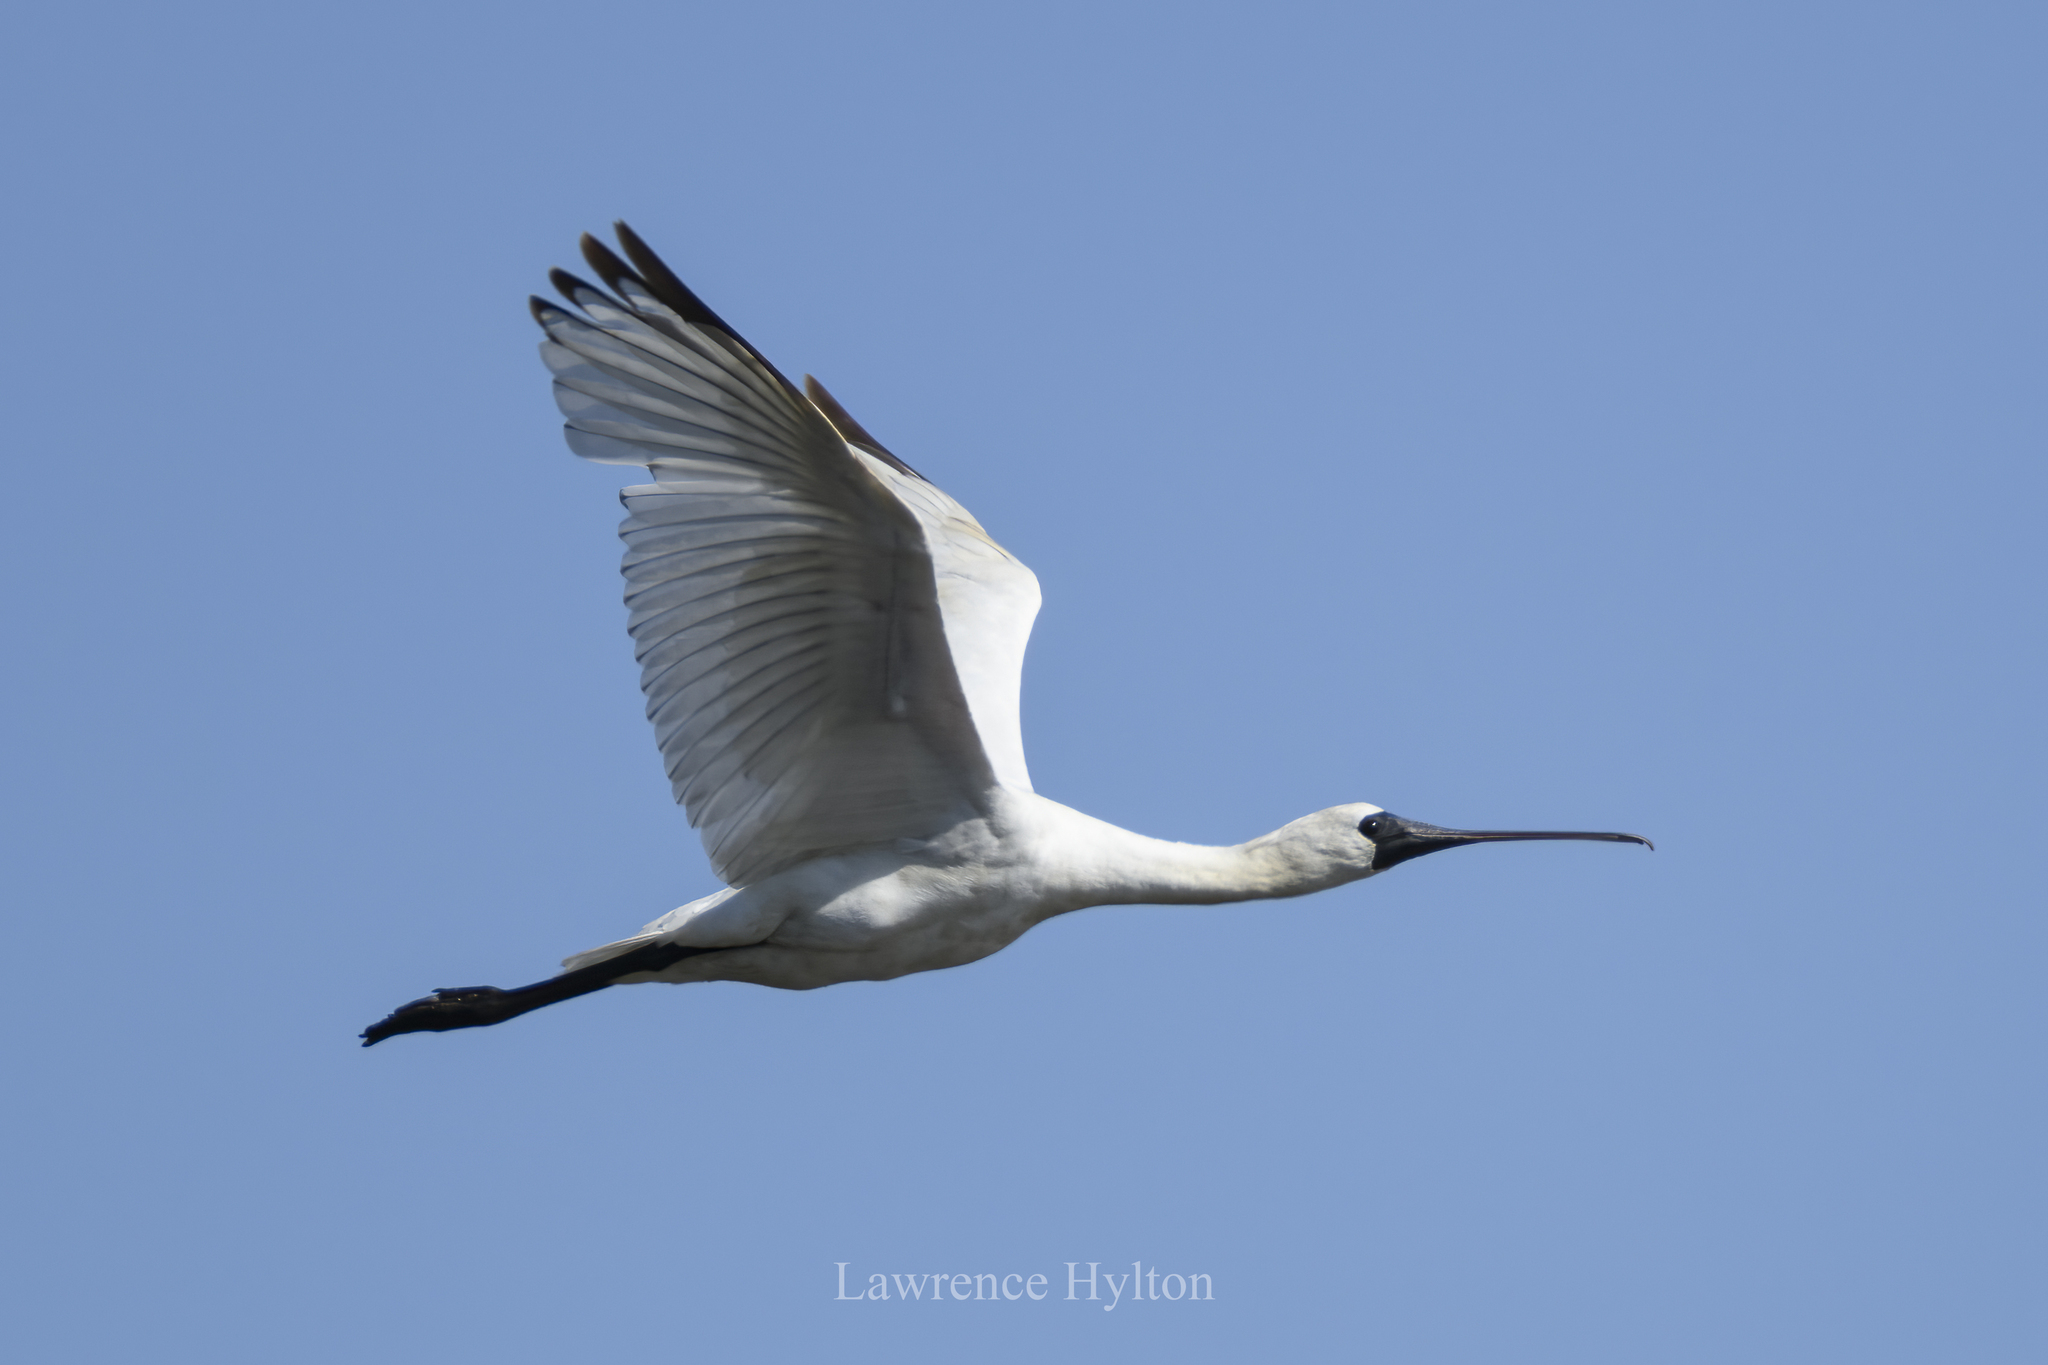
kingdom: Animalia
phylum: Chordata
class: Aves
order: Pelecaniformes
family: Threskiornithidae
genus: Platalea
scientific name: Platalea minor
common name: Black-faced spoonbill
